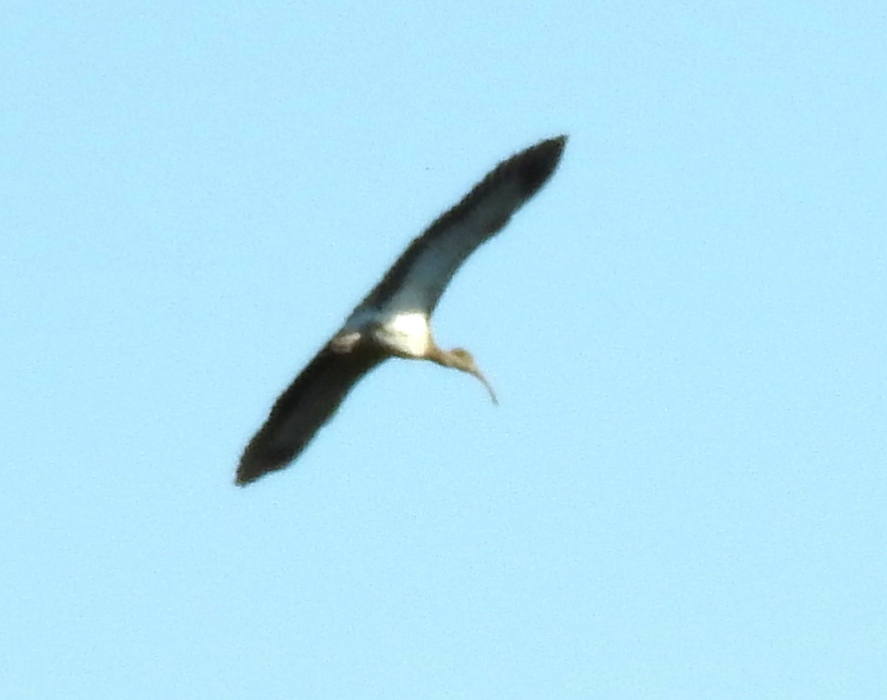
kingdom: Animalia
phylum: Chordata
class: Aves
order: Pelecaniformes
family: Threskiornithidae
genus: Eudocimus
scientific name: Eudocimus albus
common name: White ibis
